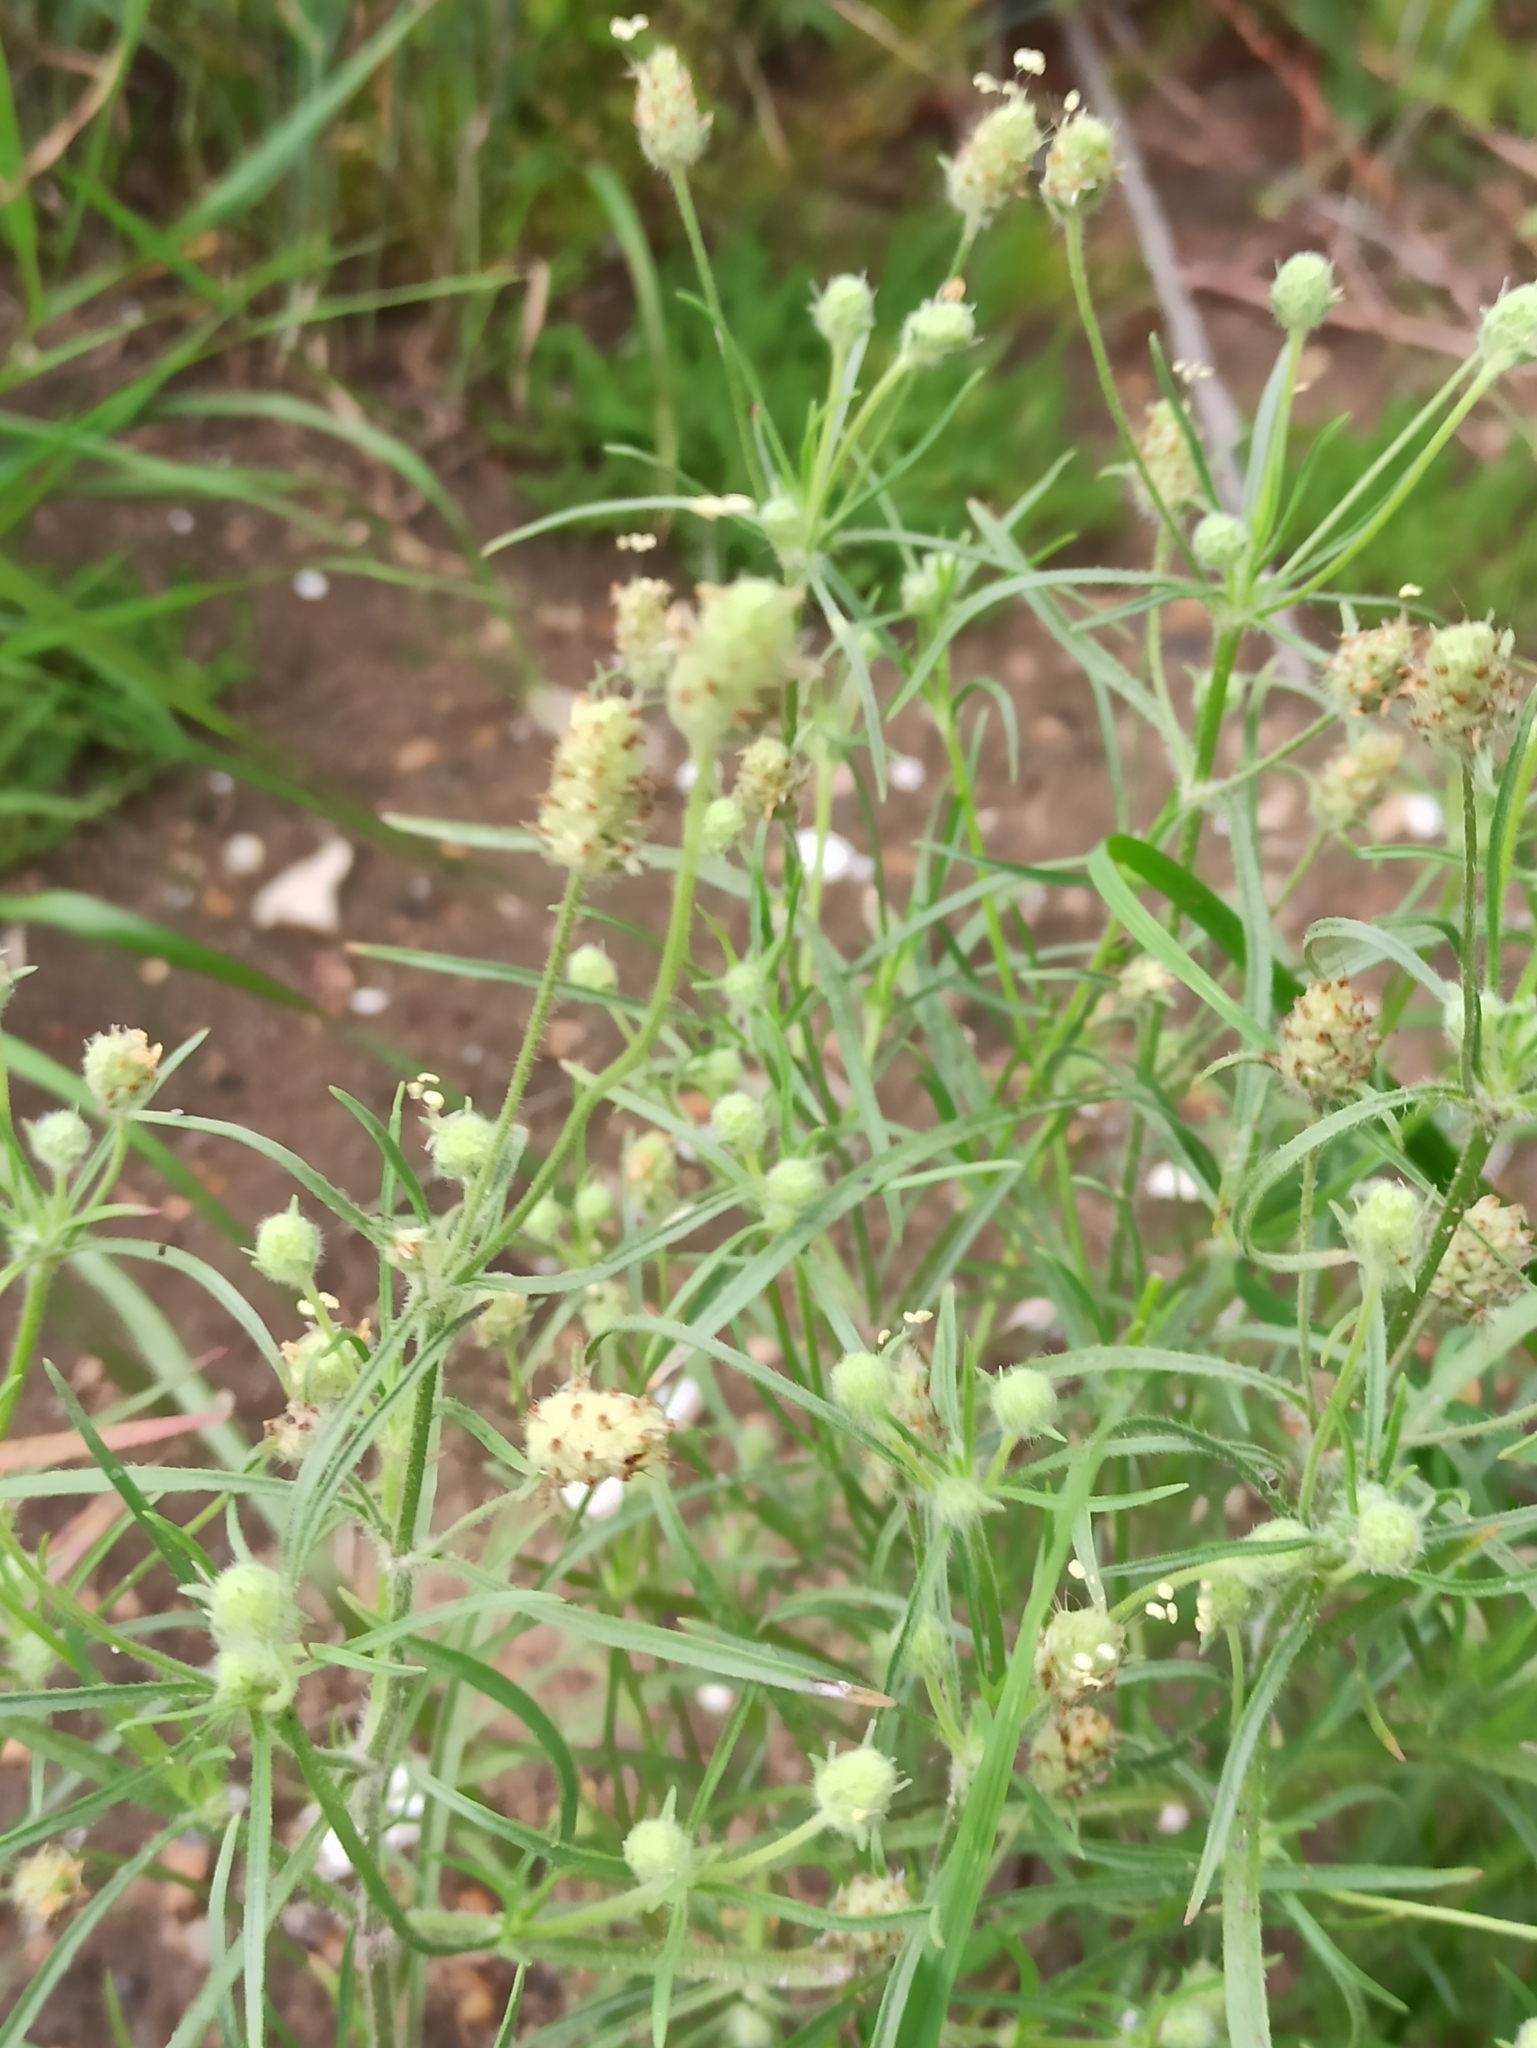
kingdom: Plantae
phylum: Tracheophyta
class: Magnoliopsida
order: Lamiales
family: Plantaginaceae
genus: Plantago
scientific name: Plantago arenaria
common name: Branched plantain
